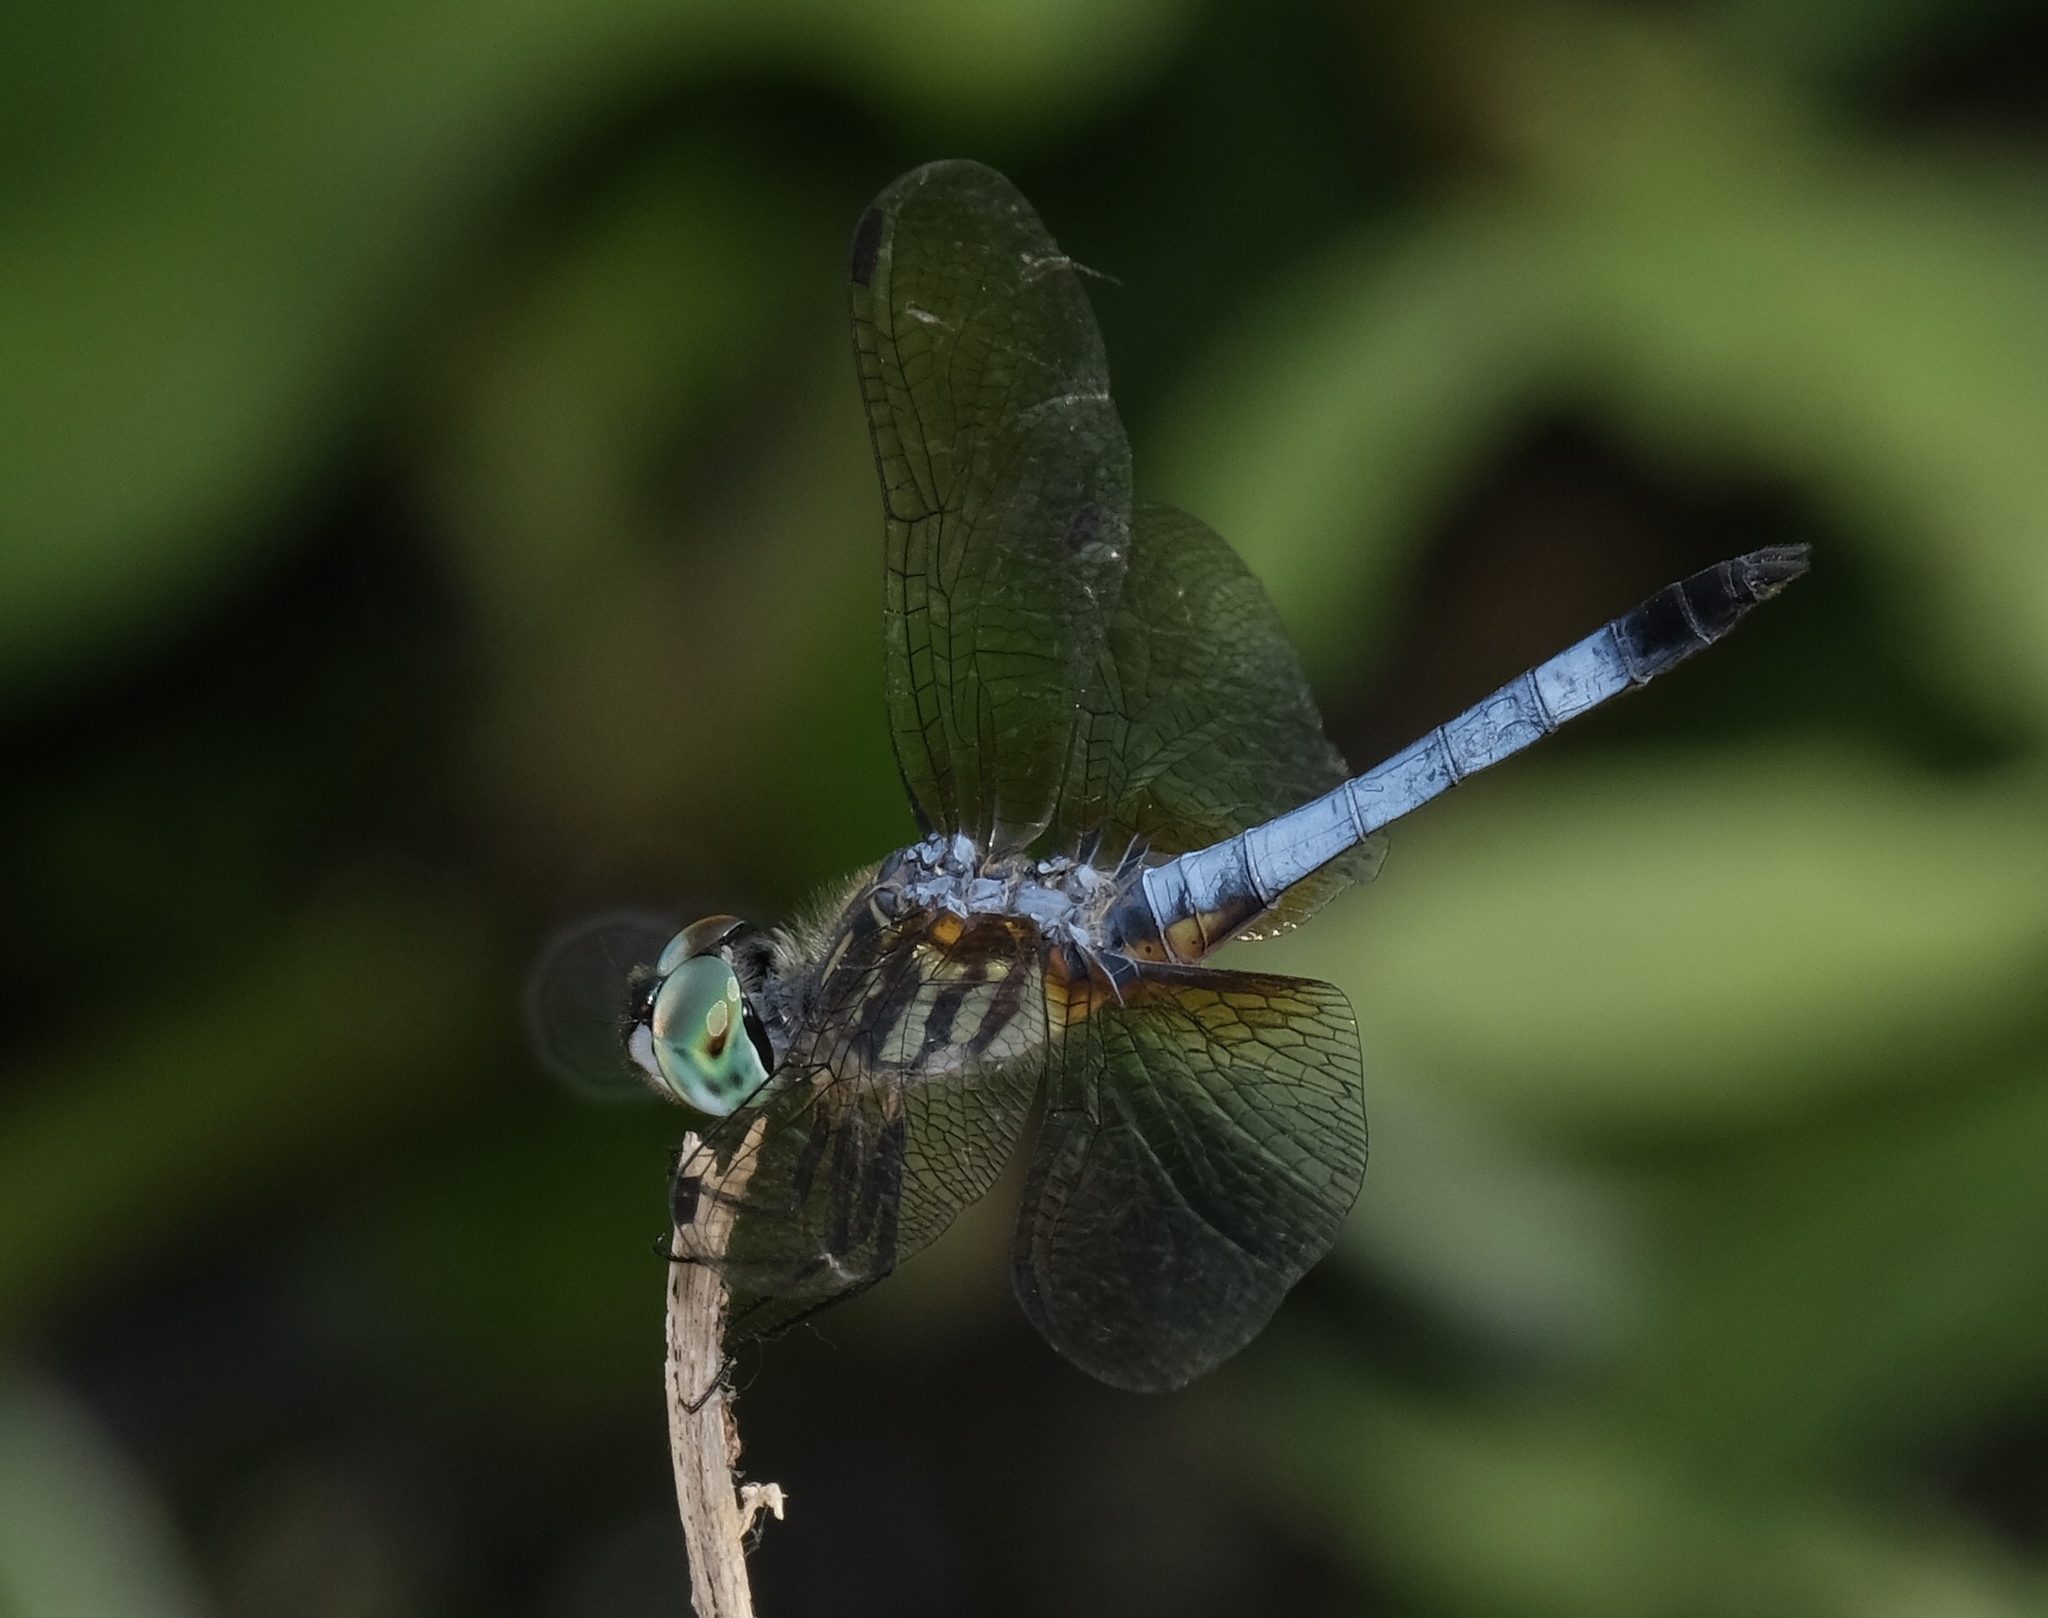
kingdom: Animalia
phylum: Arthropoda
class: Insecta
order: Odonata
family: Libellulidae
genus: Pachydiplax
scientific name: Pachydiplax longipennis
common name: Blue dasher
